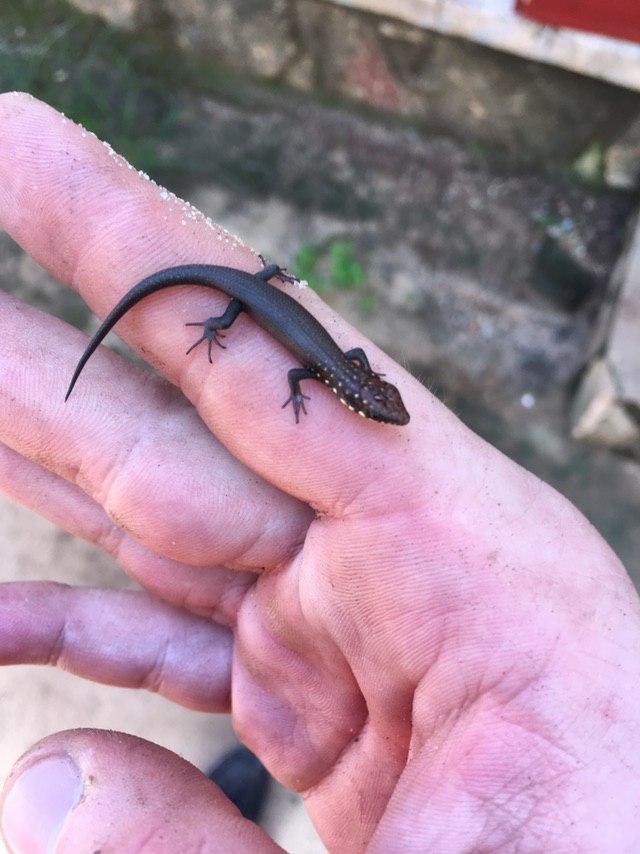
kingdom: Animalia
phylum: Chordata
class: Squamata
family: Scincidae
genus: Trachylepis
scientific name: Trachylepis aureopunctata
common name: Gold-spotted mabuya
